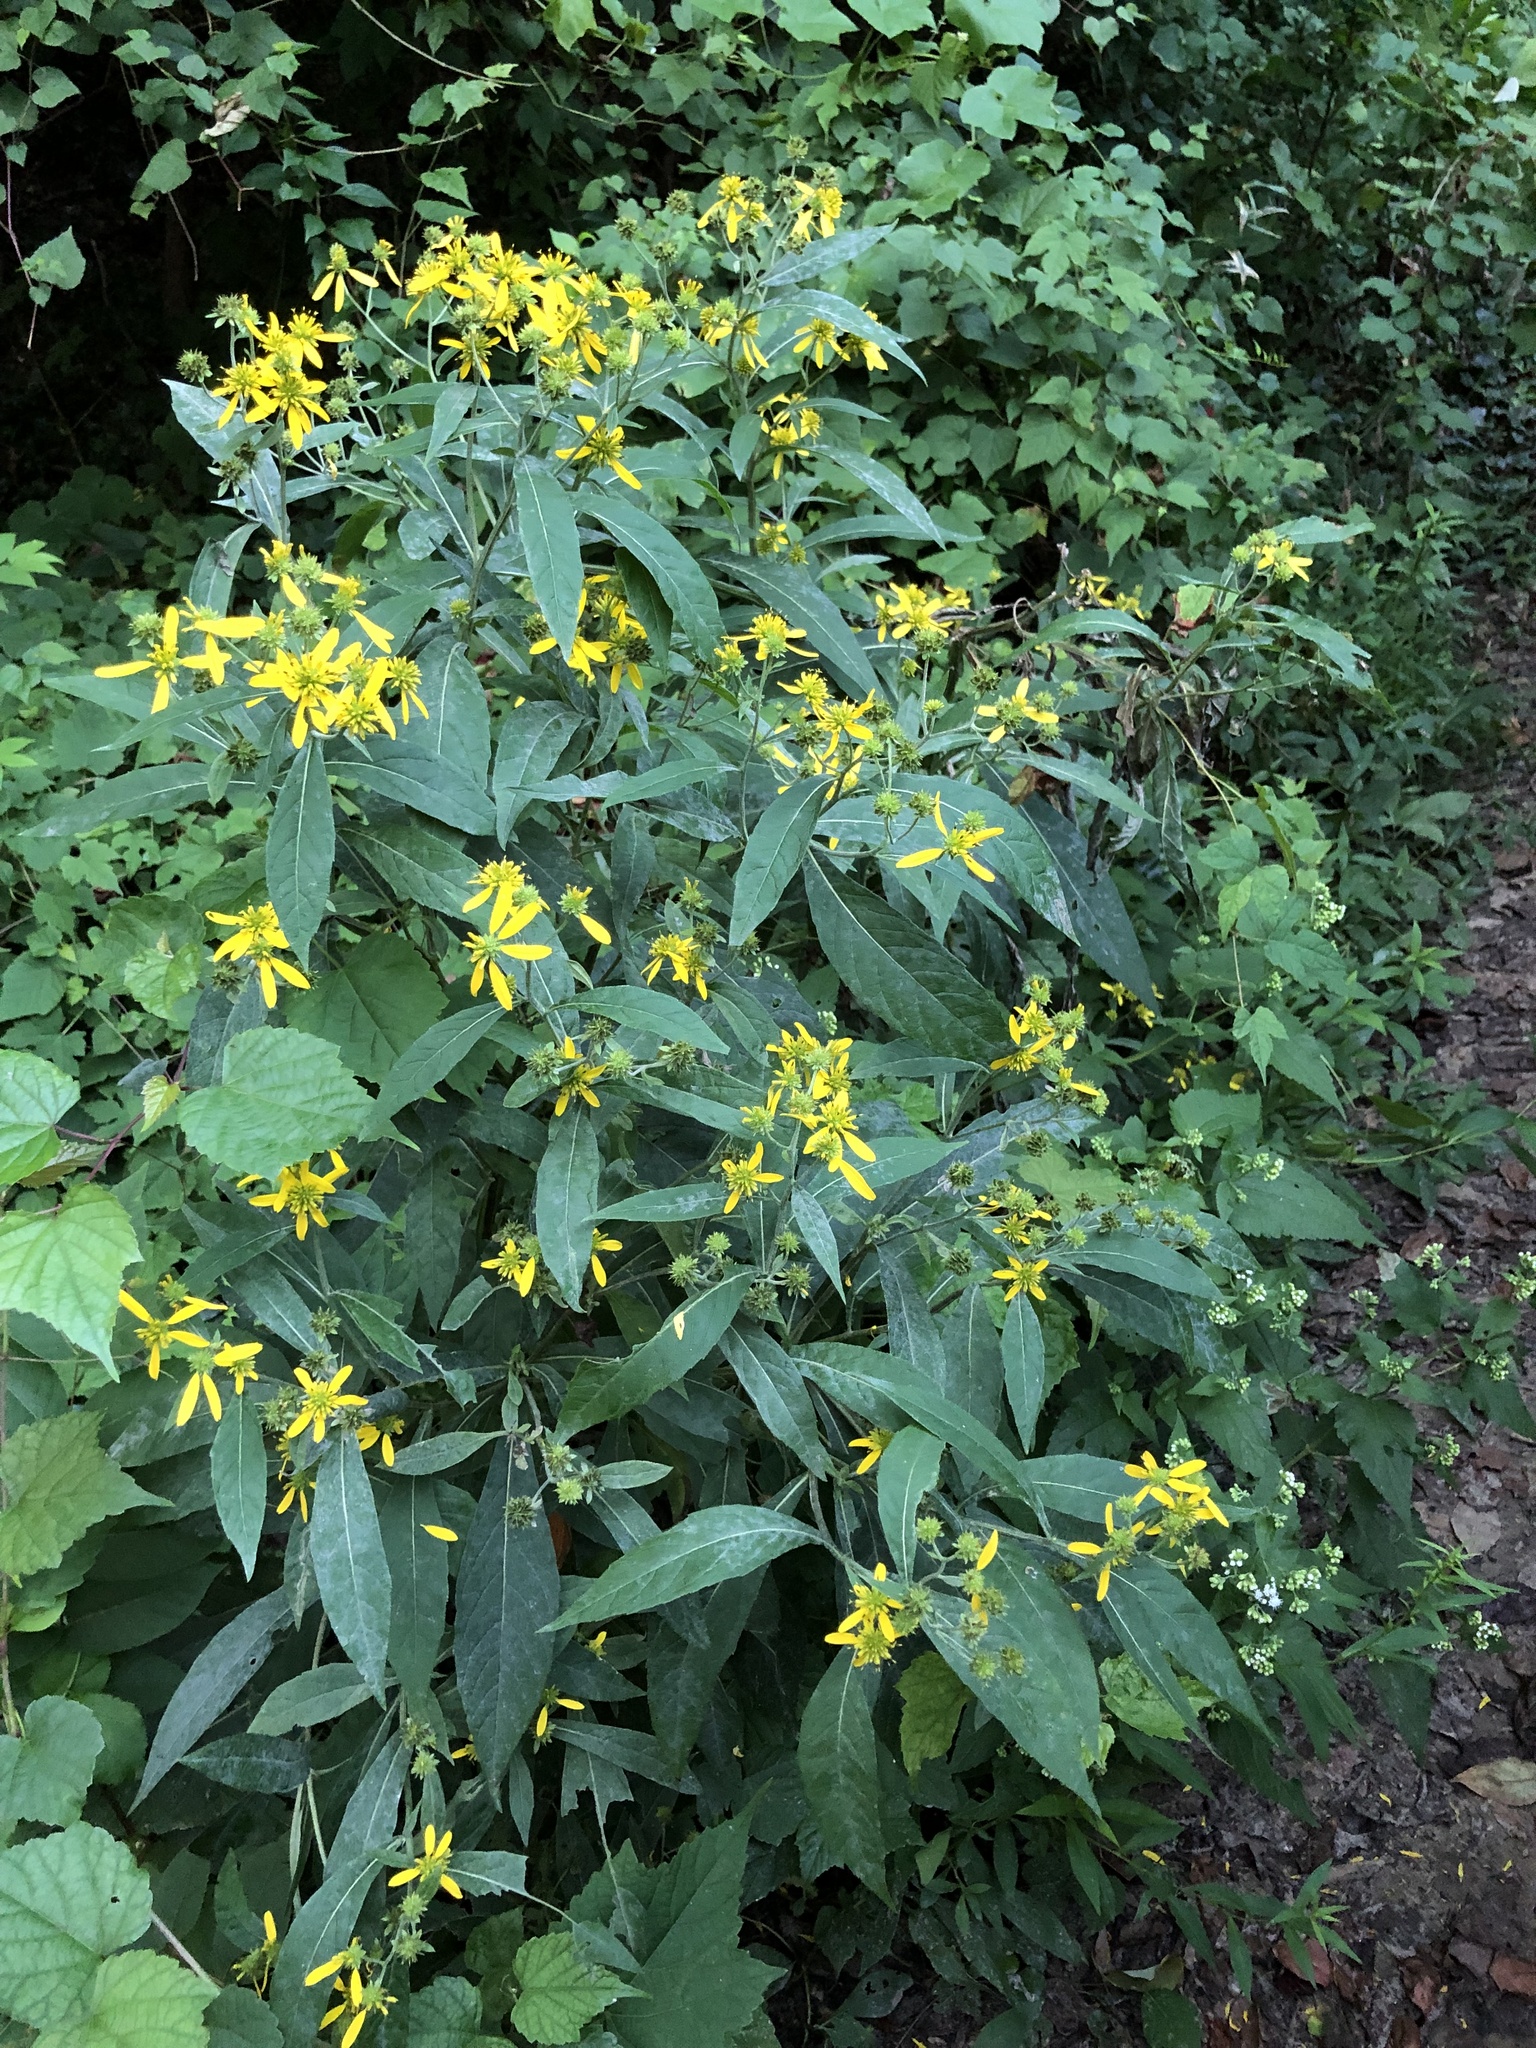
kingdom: Plantae
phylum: Tracheophyta
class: Magnoliopsida
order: Asterales
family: Asteraceae
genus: Verbesina
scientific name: Verbesina alternifolia
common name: Wingstem
